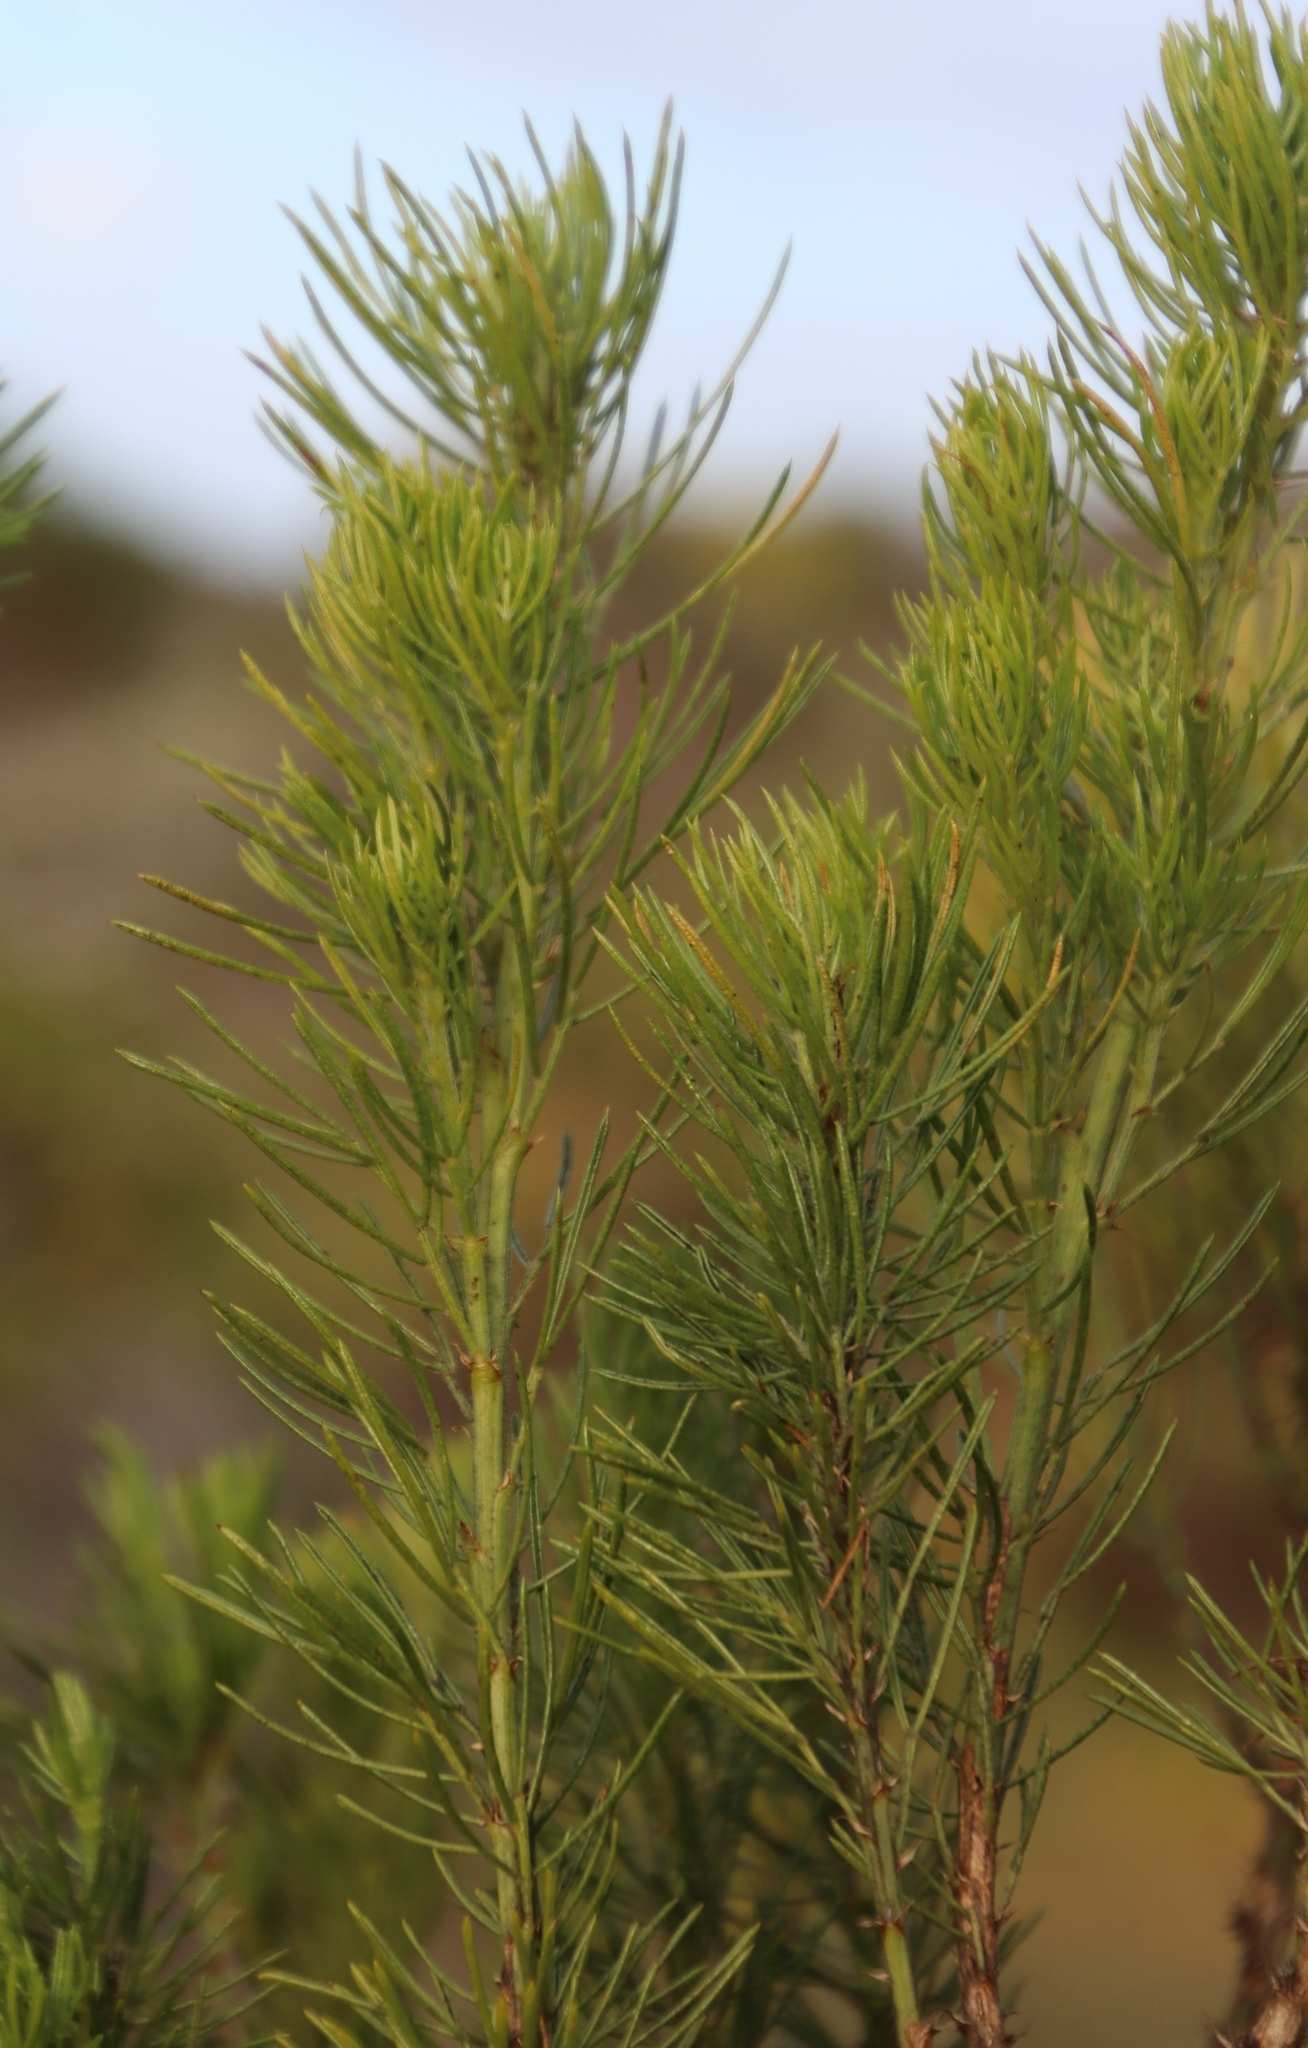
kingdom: Plantae
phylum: Tracheophyta
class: Magnoliopsida
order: Fabales
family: Fabaceae
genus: Psoralea
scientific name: Psoralea pinnata
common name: African scurfpea
